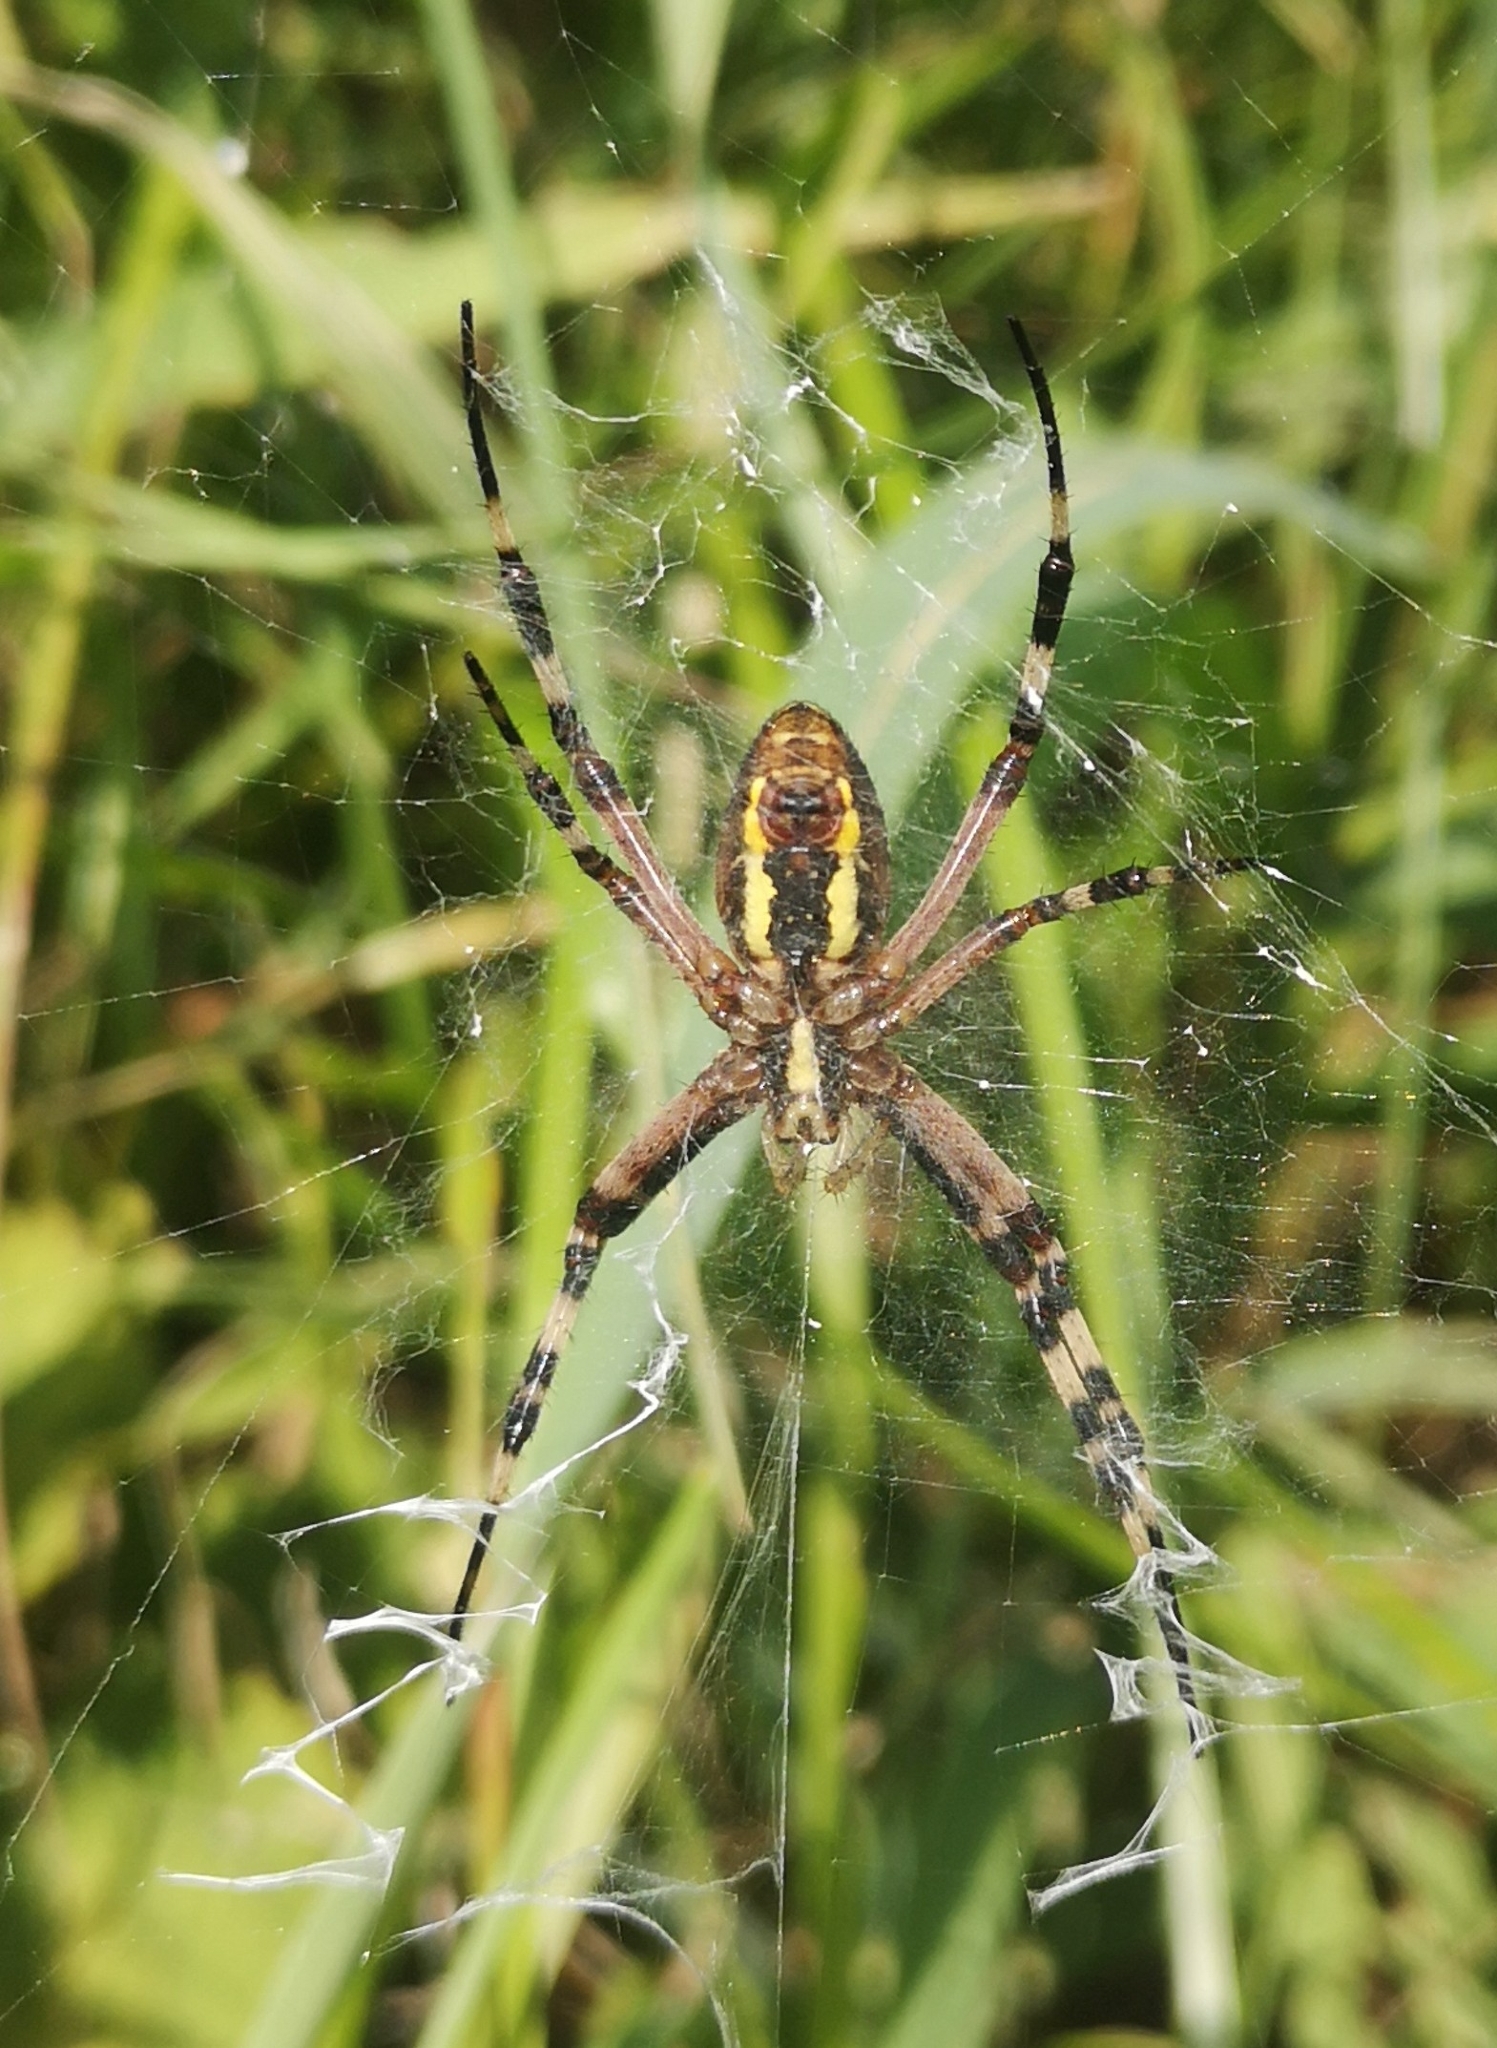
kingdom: Animalia
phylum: Arthropoda
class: Arachnida
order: Araneae
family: Araneidae
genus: Argiope
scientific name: Argiope bruennichi
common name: Wasp spider
